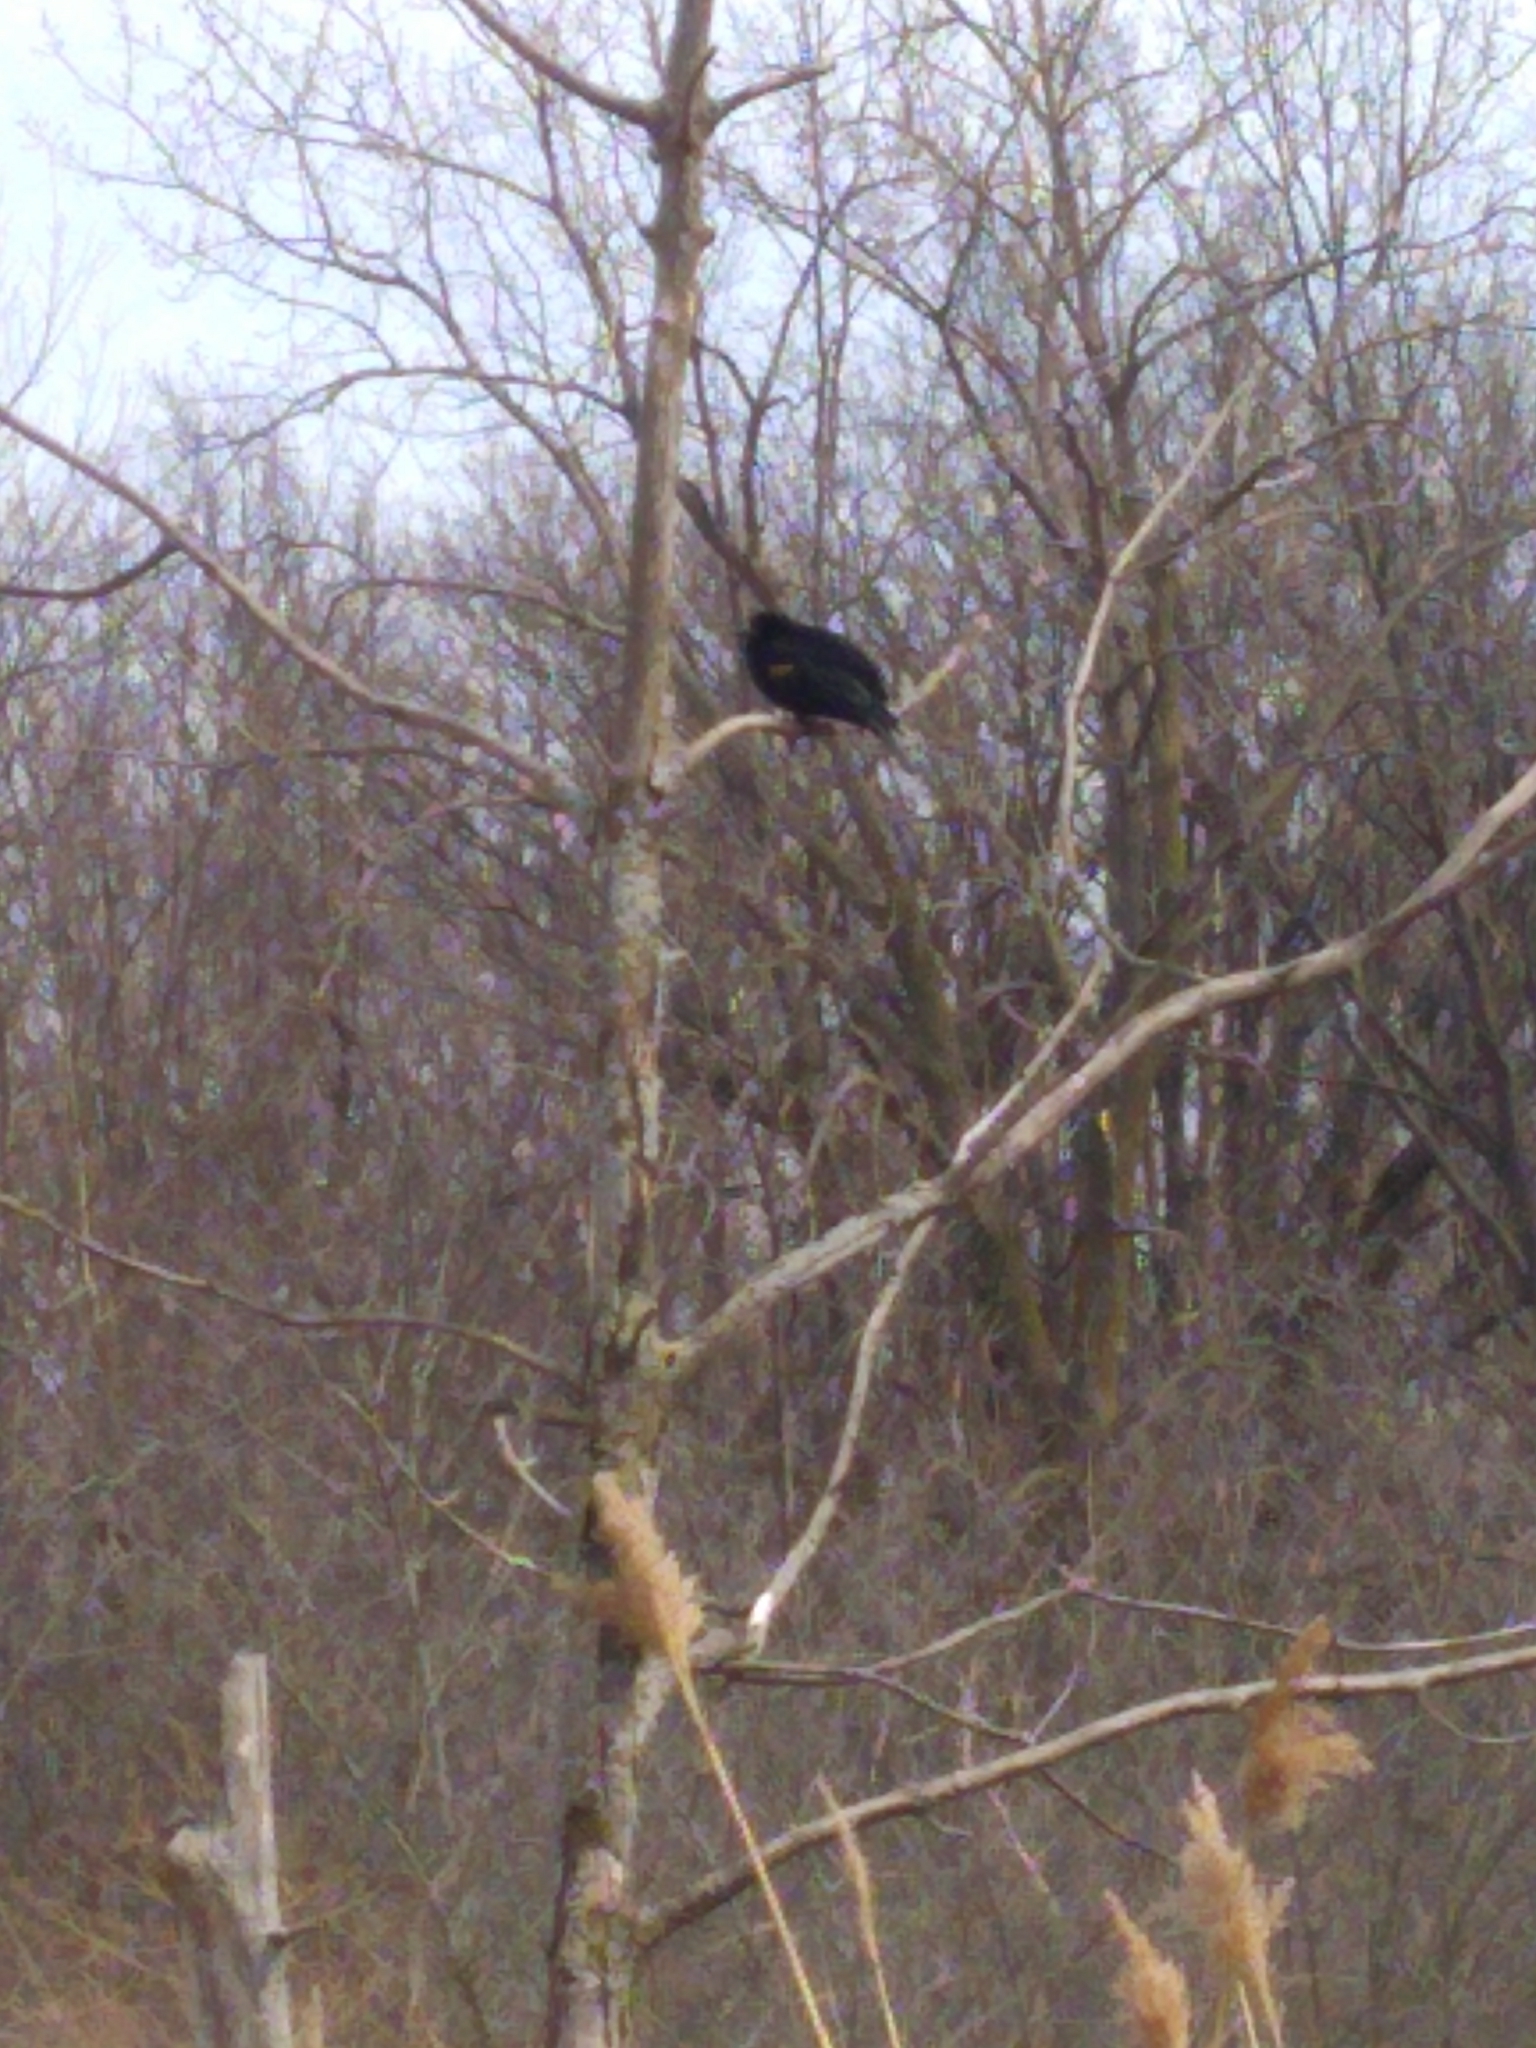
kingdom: Animalia
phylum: Chordata
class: Aves
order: Passeriformes
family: Icteridae
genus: Agelaius
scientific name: Agelaius phoeniceus
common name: Red-winged blackbird
